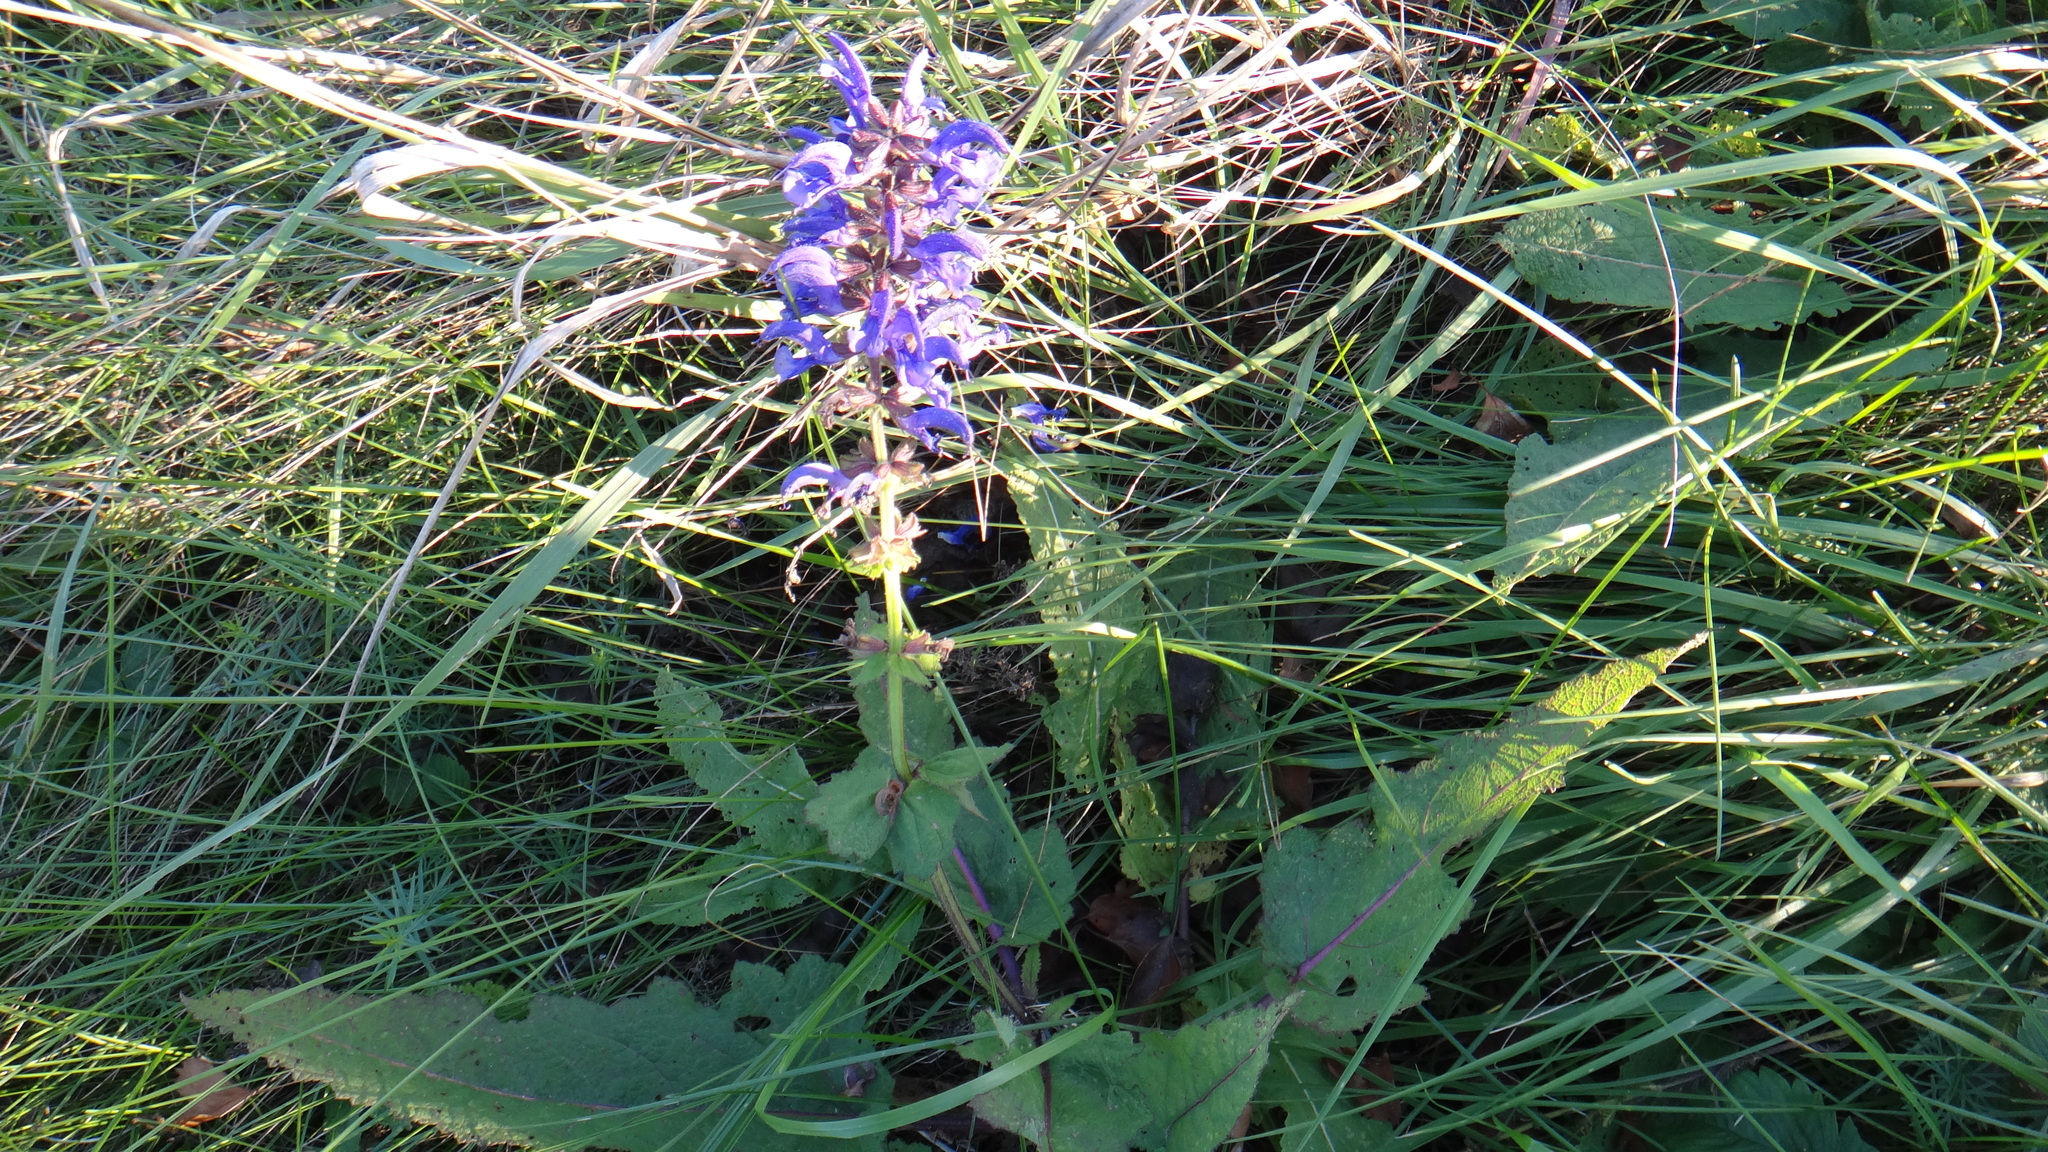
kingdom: Plantae
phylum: Tracheophyta
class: Magnoliopsida
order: Lamiales
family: Lamiaceae
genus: Salvia
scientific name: Salvia pratensis
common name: Meadow sage
